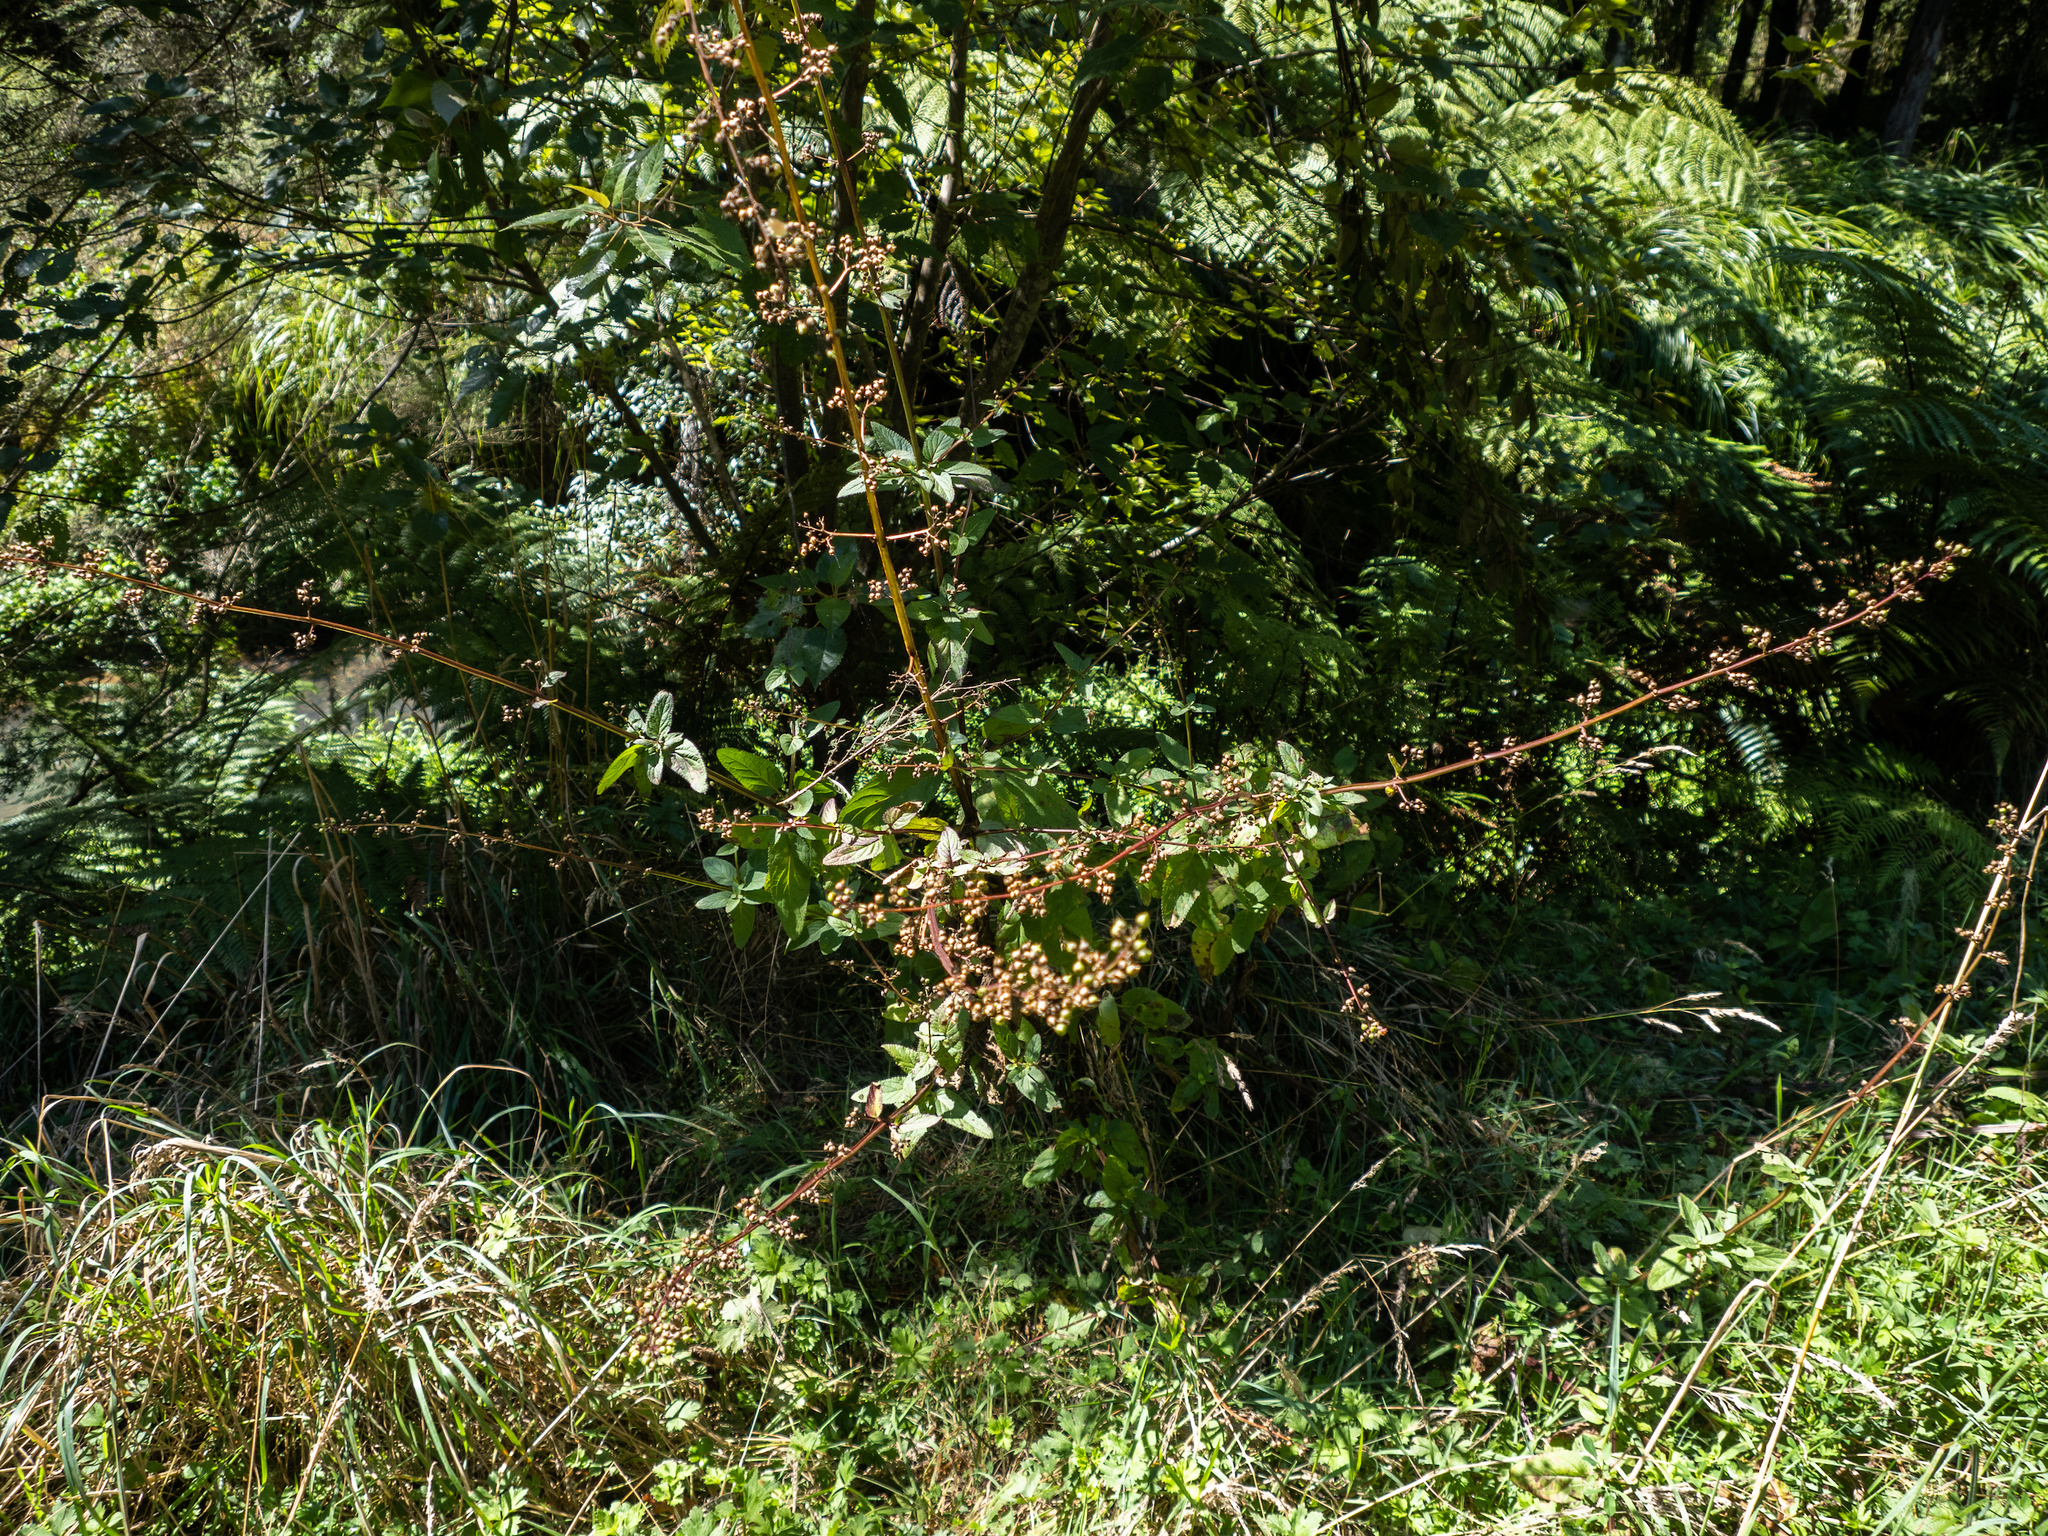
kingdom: Plantae
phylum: Tracheophyta
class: Magnoliopsida
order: Lamiales
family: Scrophulariaceae
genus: Scrophularia
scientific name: Scrophularia auriculata
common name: Water betony
